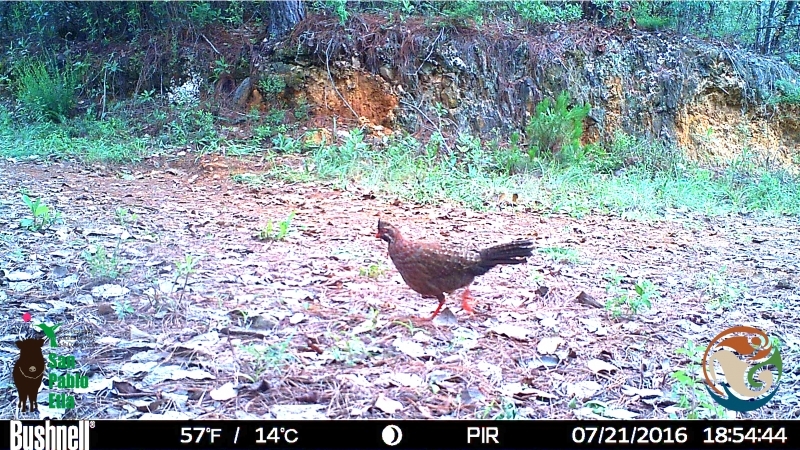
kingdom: Animalia
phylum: Chordata
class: Aves
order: Galliformes
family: Odontophoridae
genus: Dendrortyx
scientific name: Dendrortyx macroura
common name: Long-tailed wood-partridge
